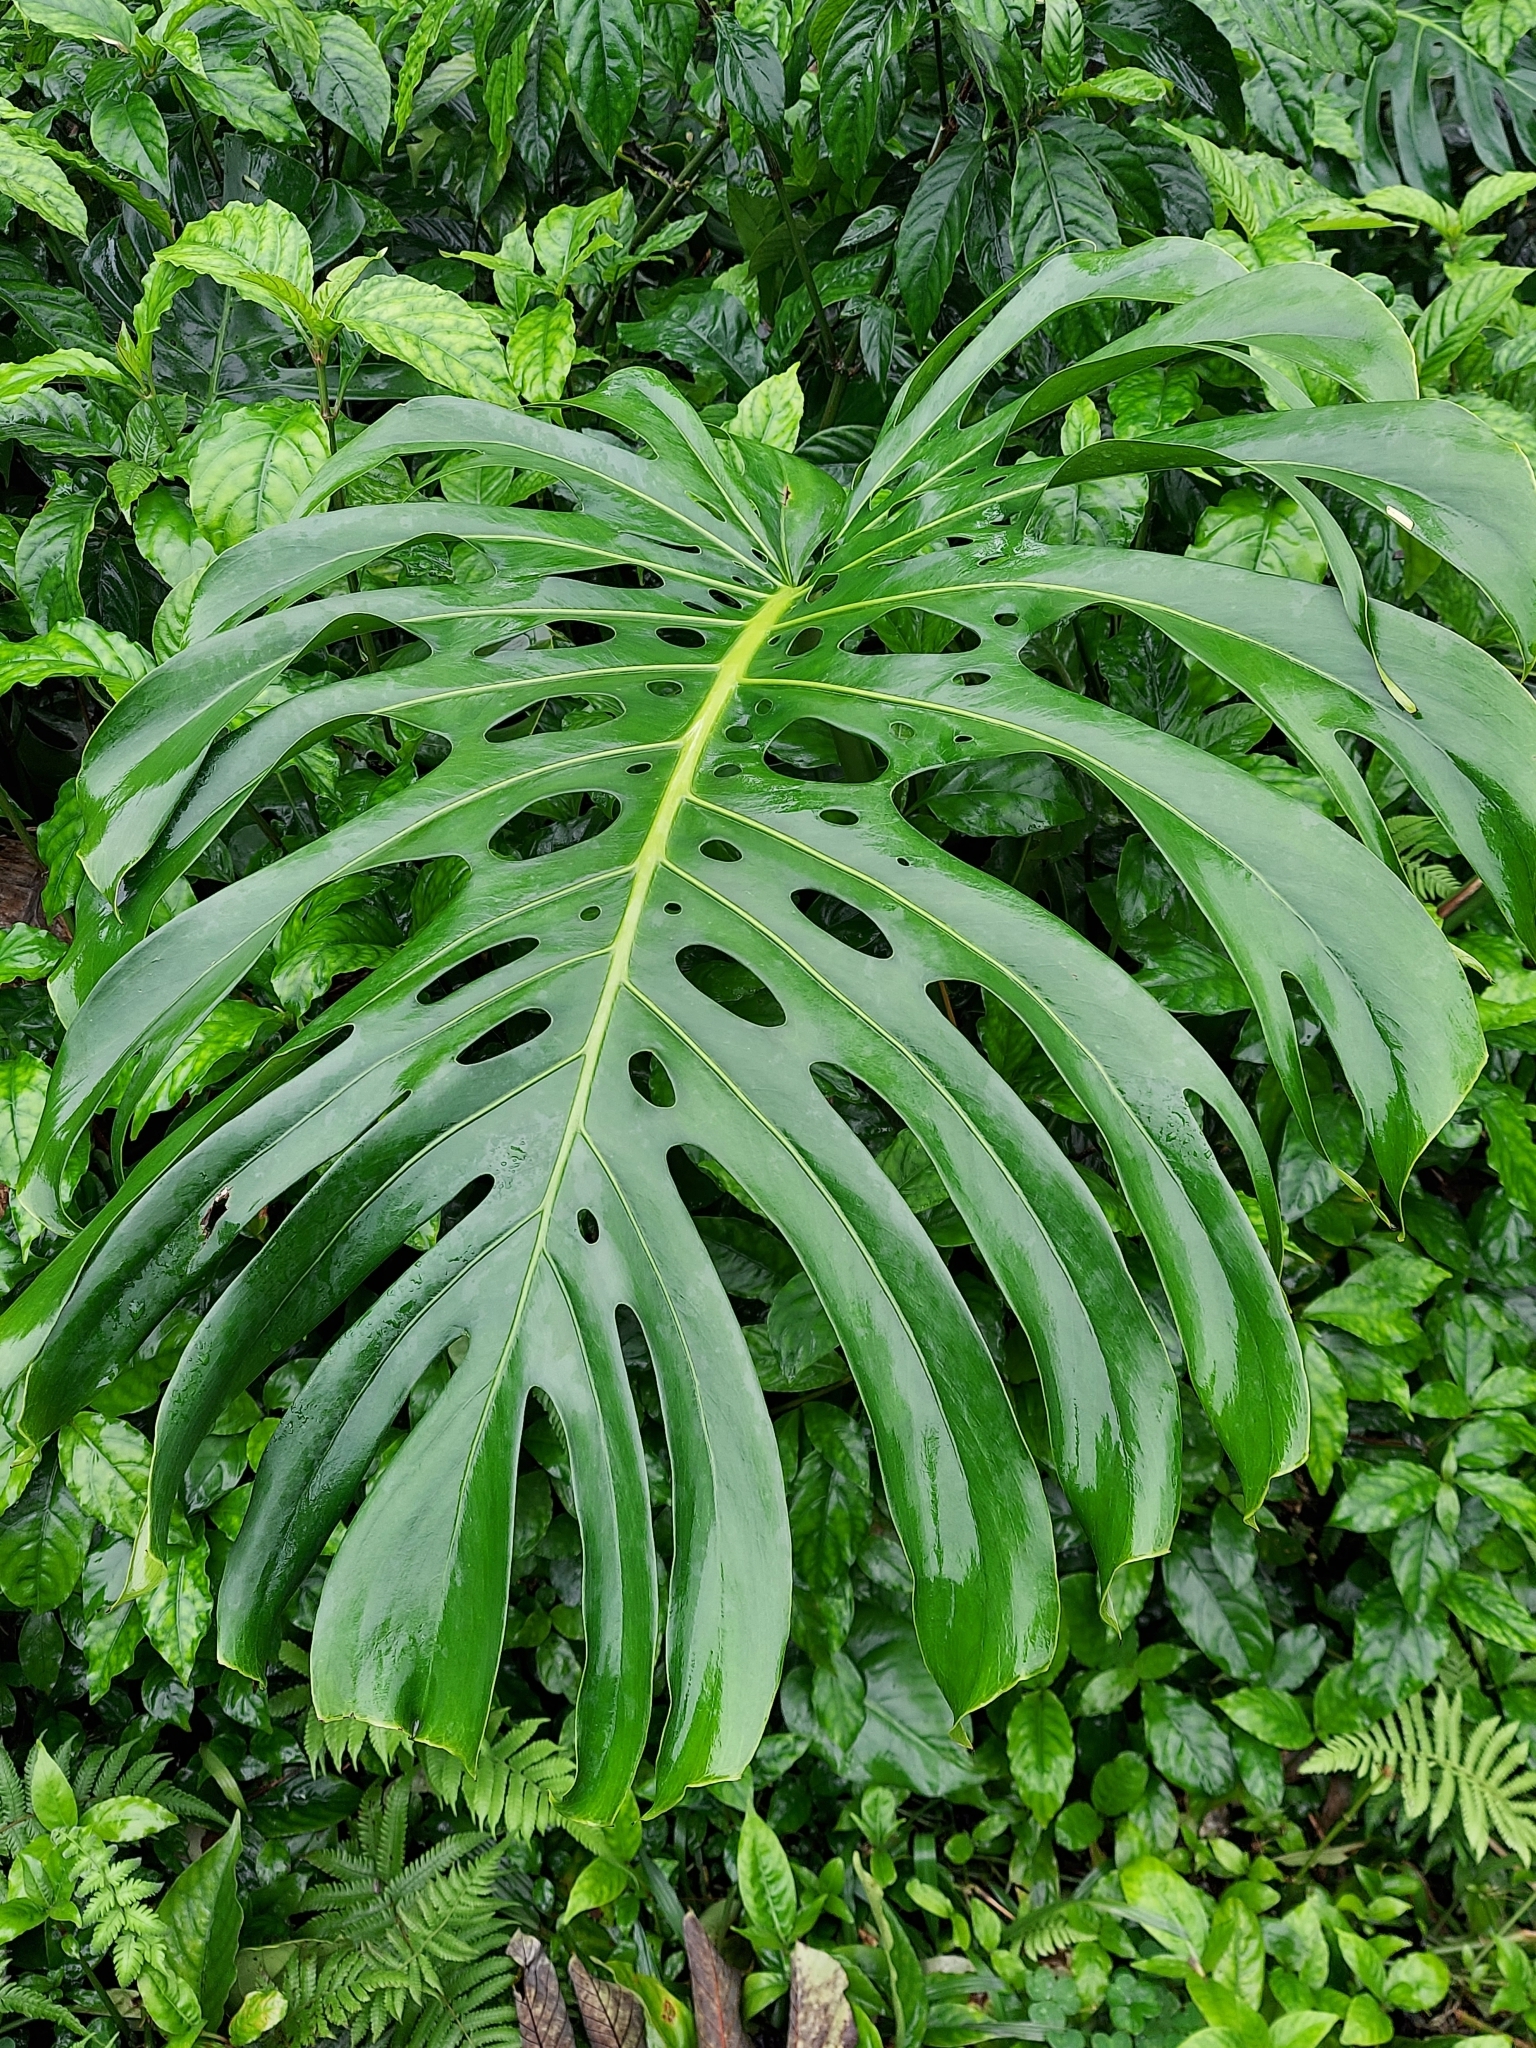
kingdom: Plantae
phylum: Tracheophyta
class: Liliopsida
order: Alismatales
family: Araceae
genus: Monstera
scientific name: Monstera deliciosa
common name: Cut-leaf-philodendron
